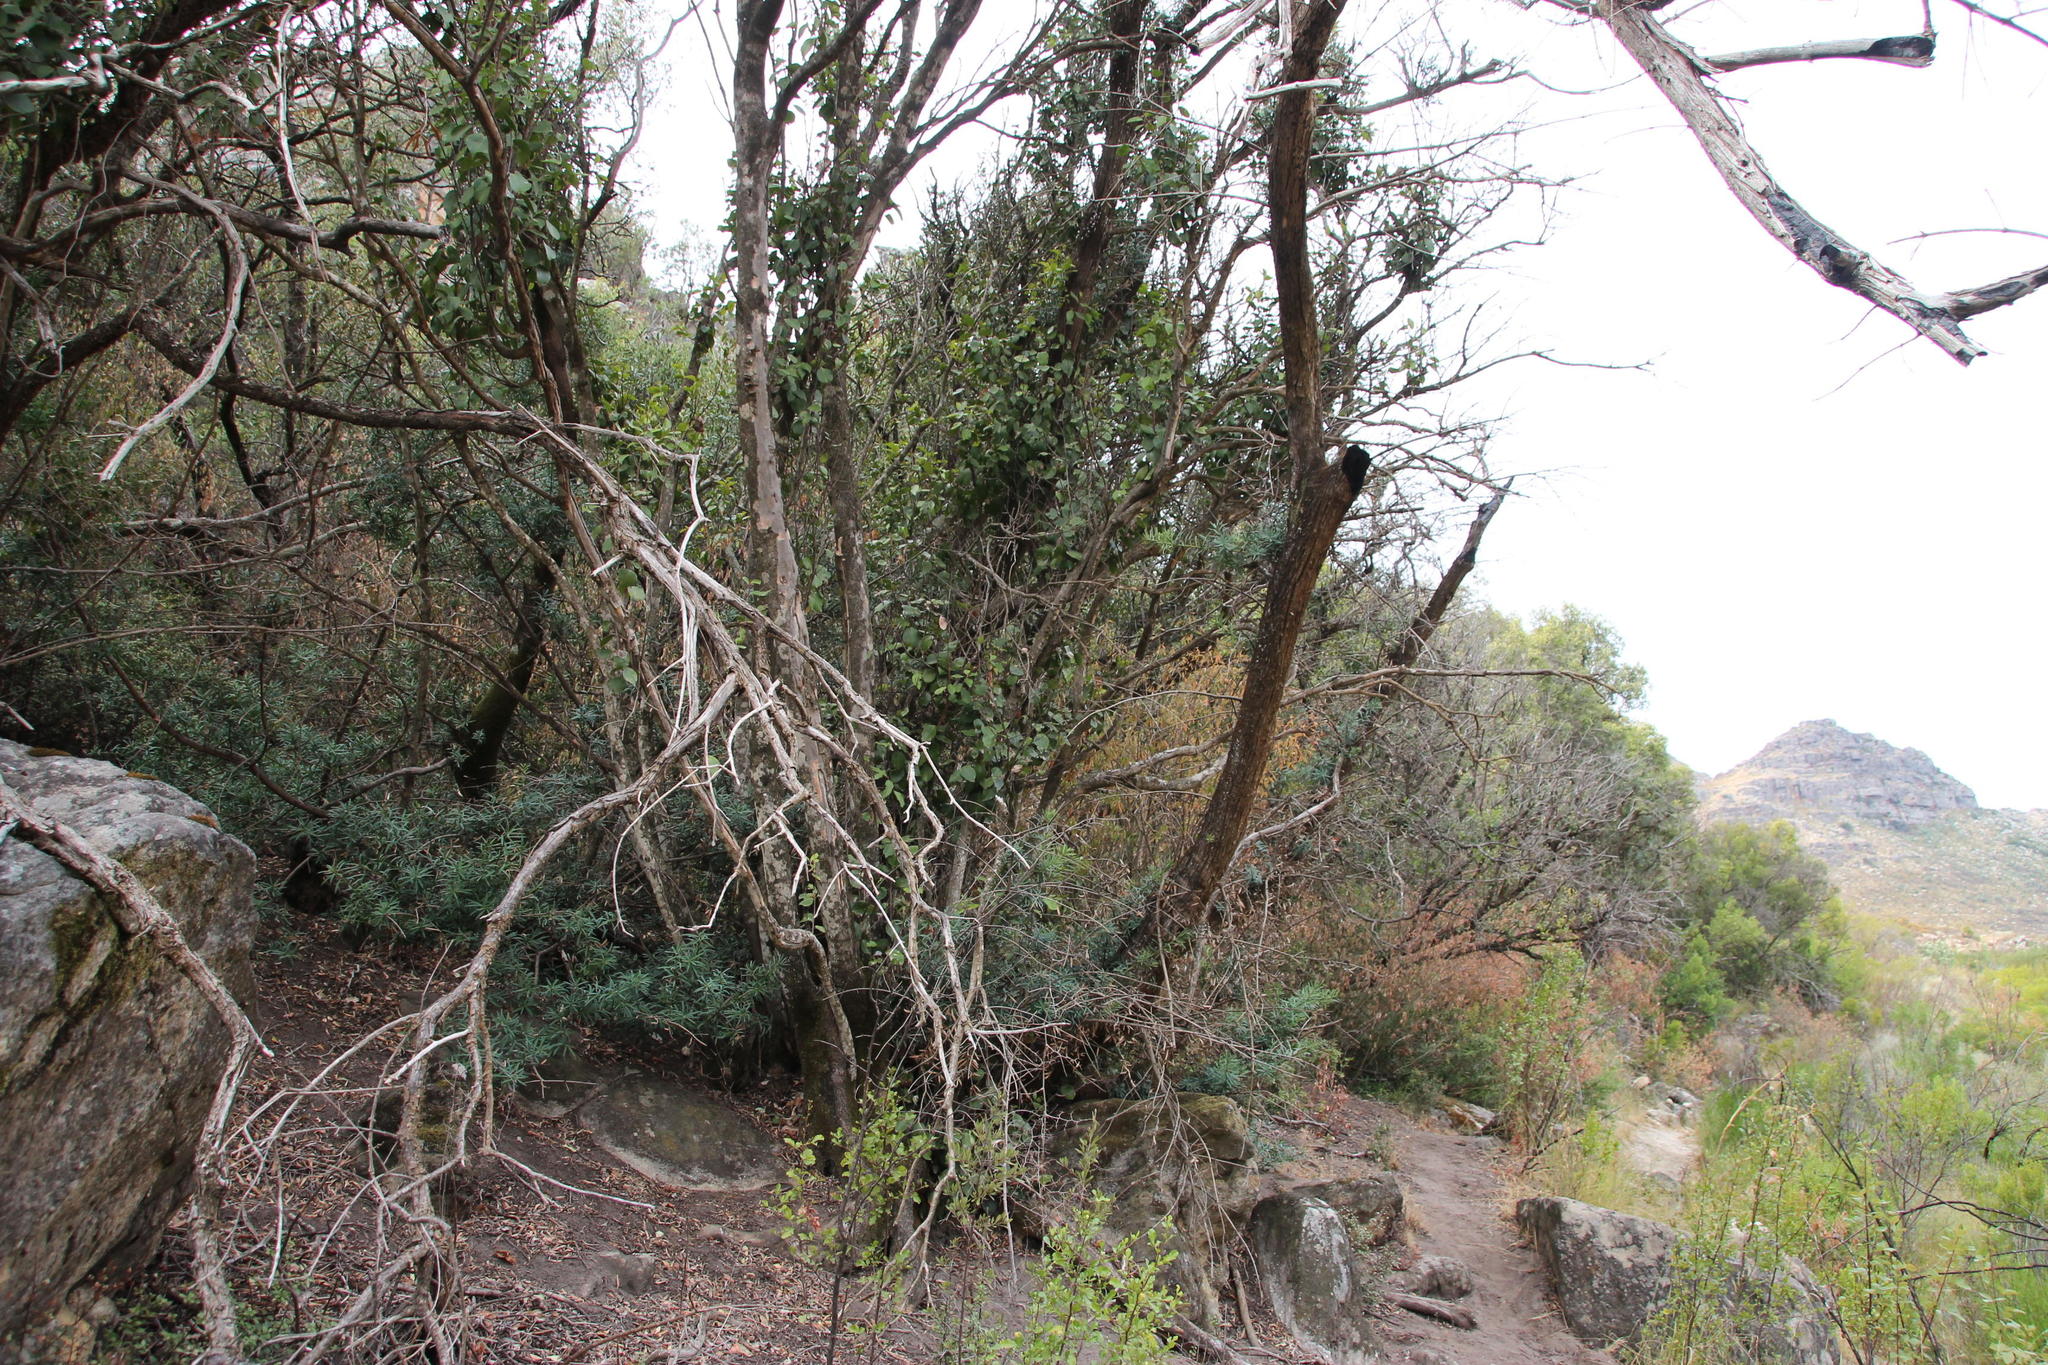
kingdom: Plantae
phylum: Tracheophyta
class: Pinopsida
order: Pinales
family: Podocarpaceae
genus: Podocarpus
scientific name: Podocarpus elongatus
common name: Breede river yellowwood
